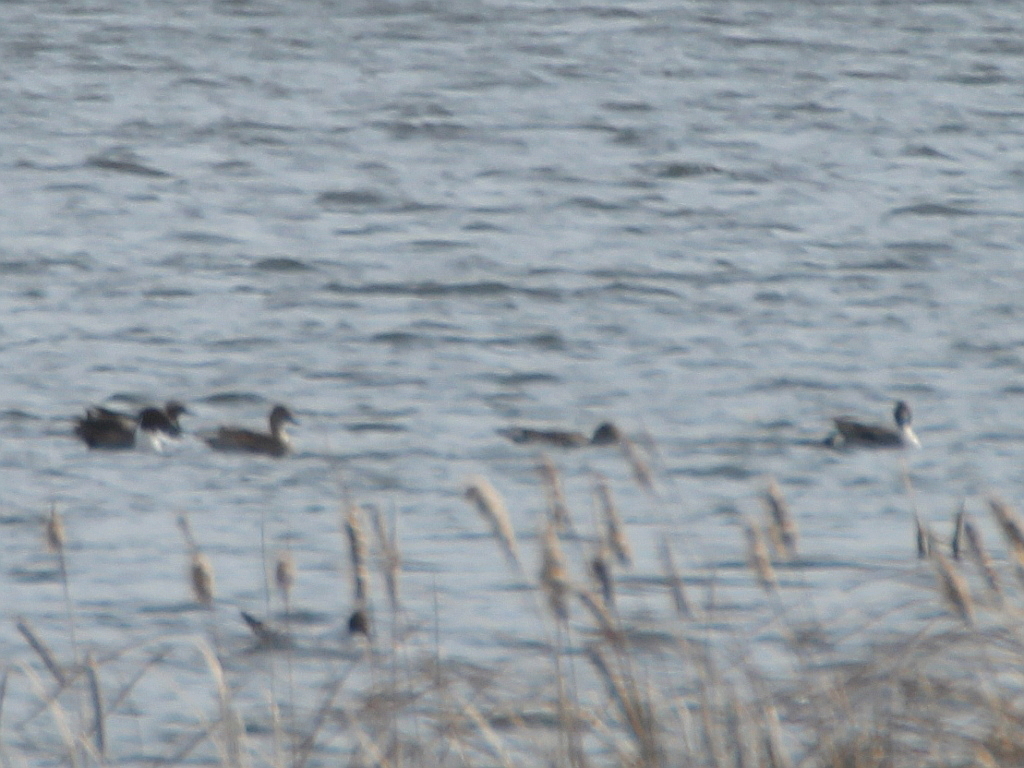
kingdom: Animalia
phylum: Chordata
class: Aves
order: Anseriformes
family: Anatidae
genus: Anas
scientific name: Anas acuta
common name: Northern pintail
